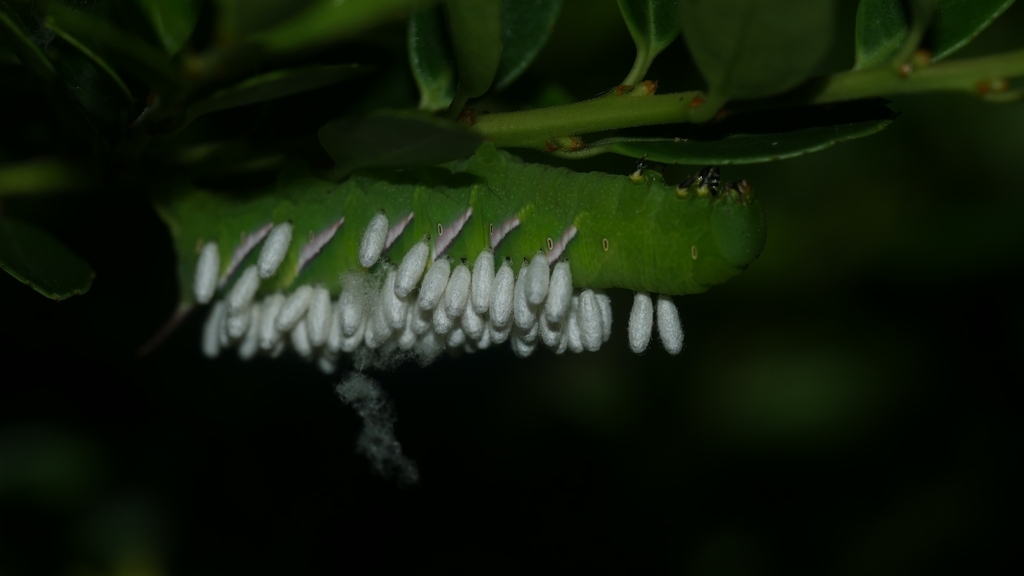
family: Polydnaviriformidae
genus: Bracoviriform
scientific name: Bracoviriform congregatae
